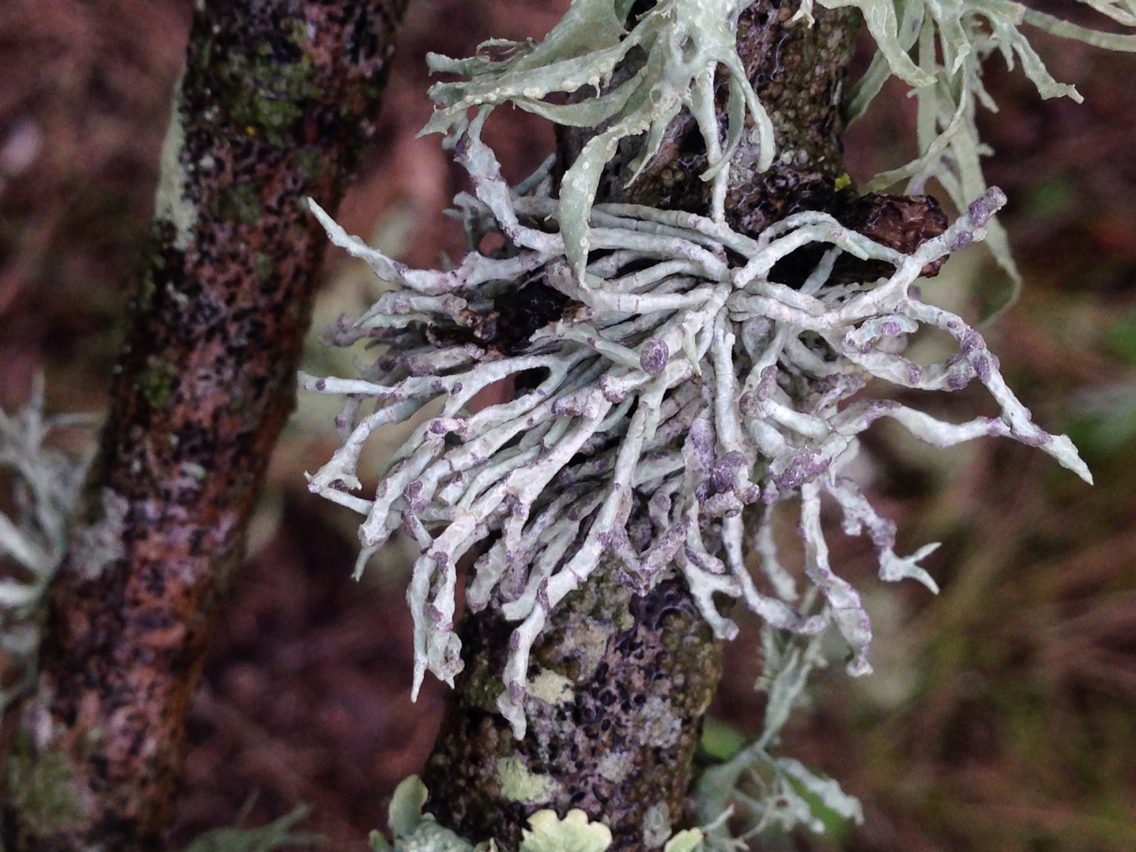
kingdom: Fungi
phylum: Ascomycota
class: Lecanoromycetes
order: Lecanorales
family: Ramalinaceae
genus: Niebla
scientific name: Niebla cephalota
